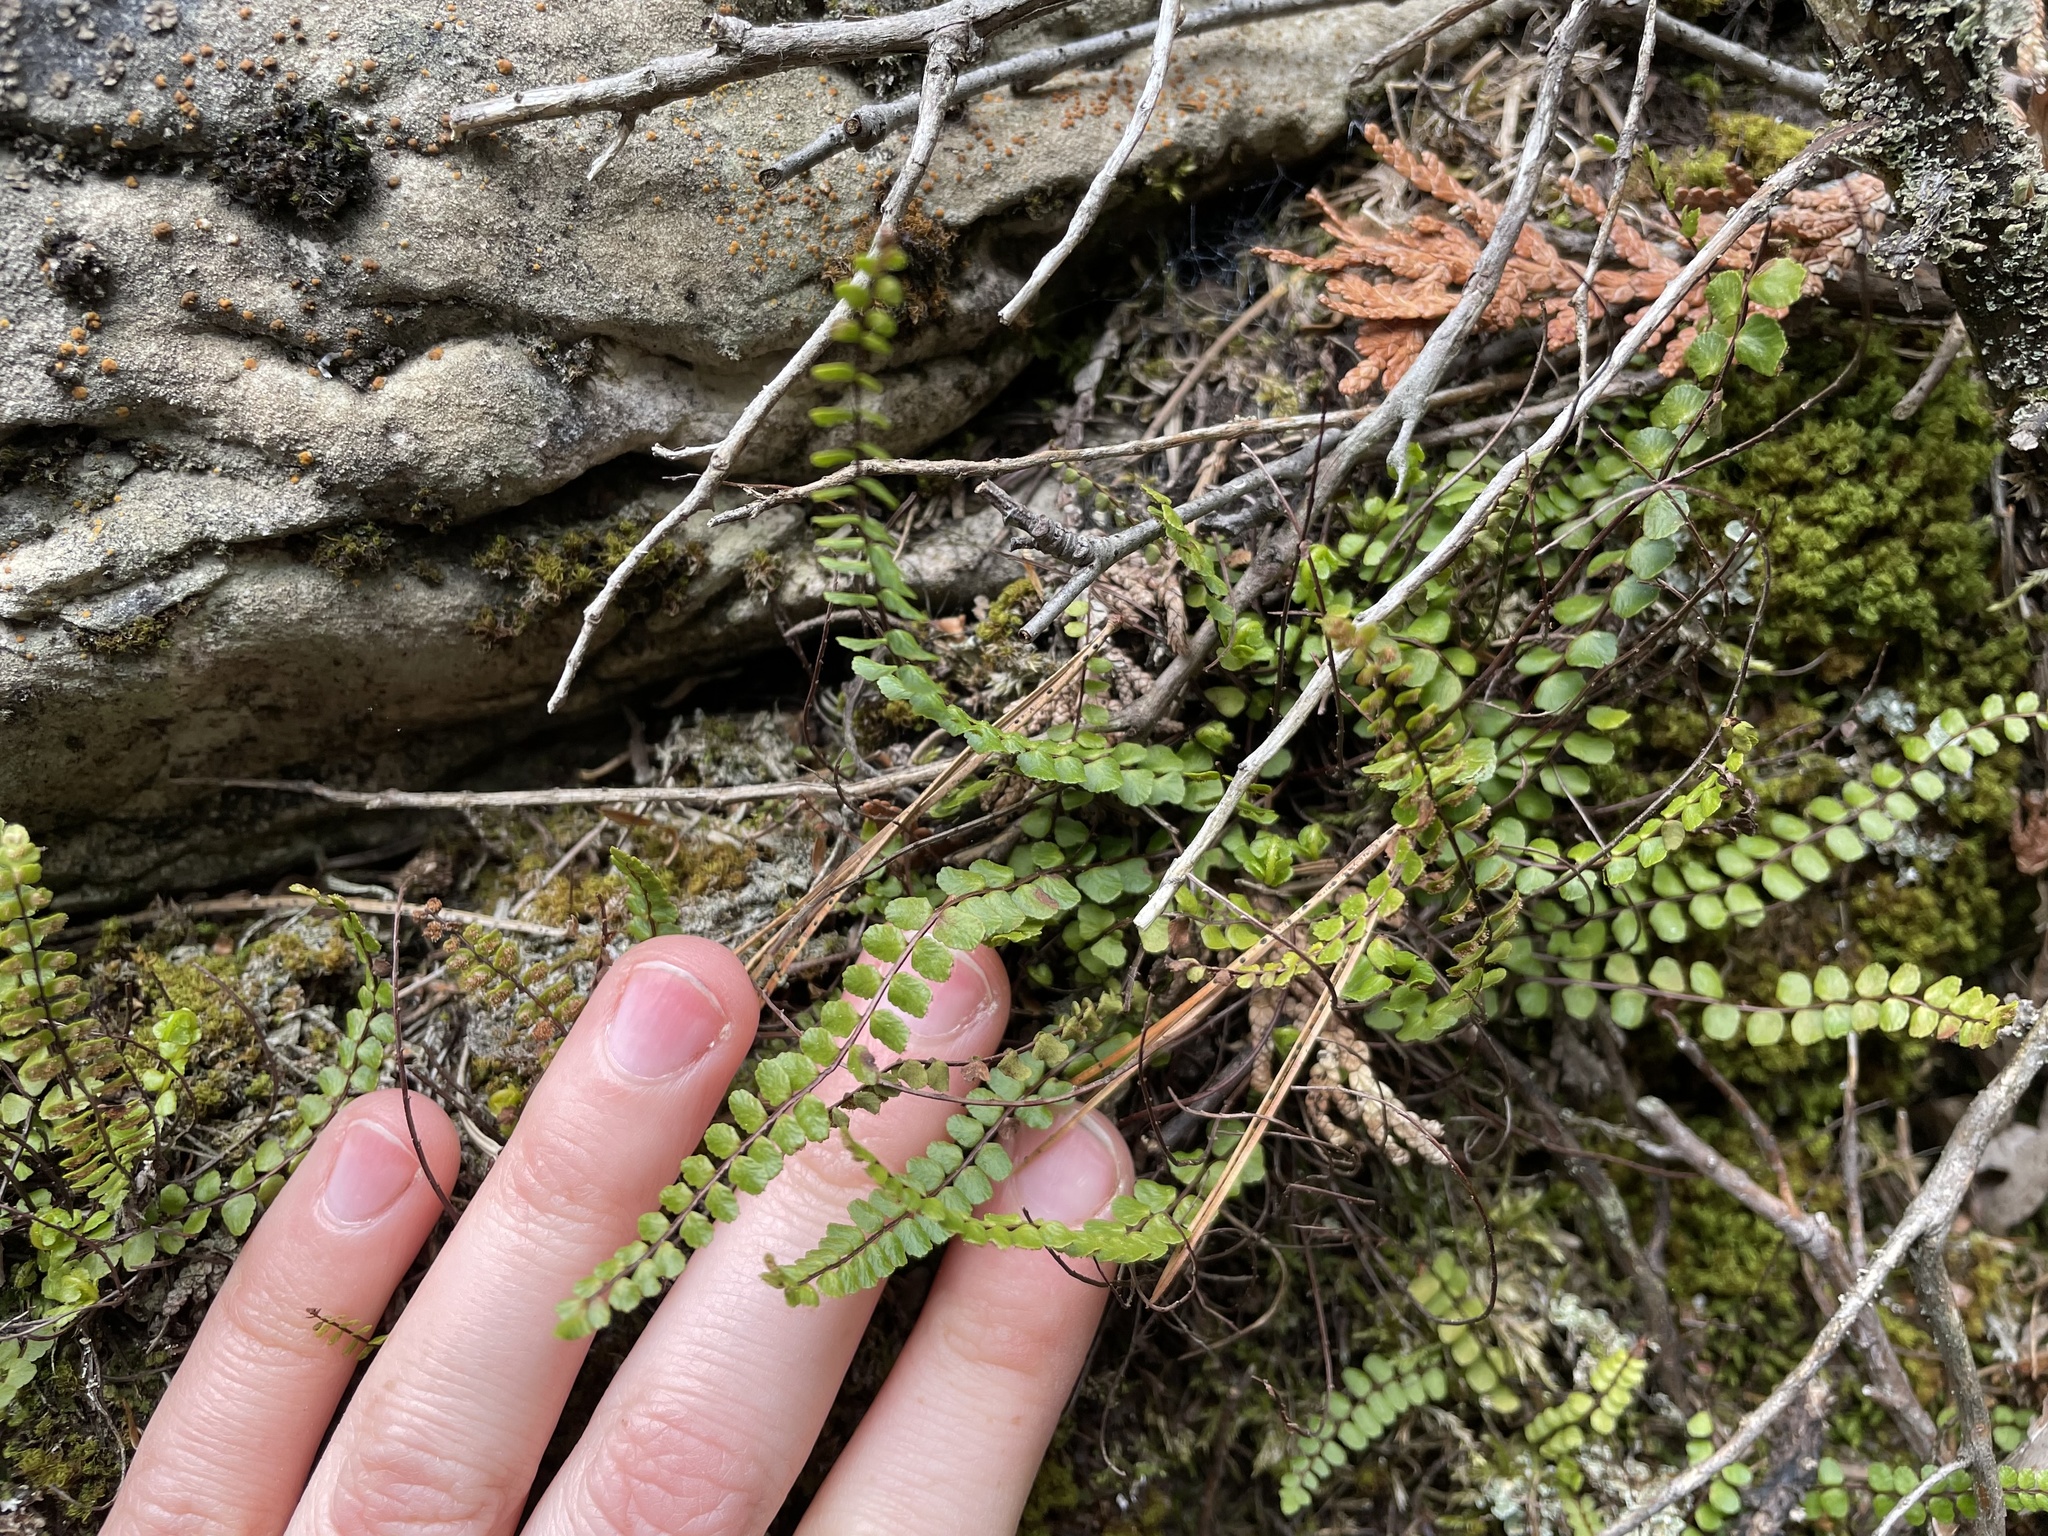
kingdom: Plantae
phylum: Tracheophyta
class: Polypodiopsida
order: Polypodiales
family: Aspleniaceae
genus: Asplenium
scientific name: Asplenium trichomanes
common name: Maidenhair spleenwort
